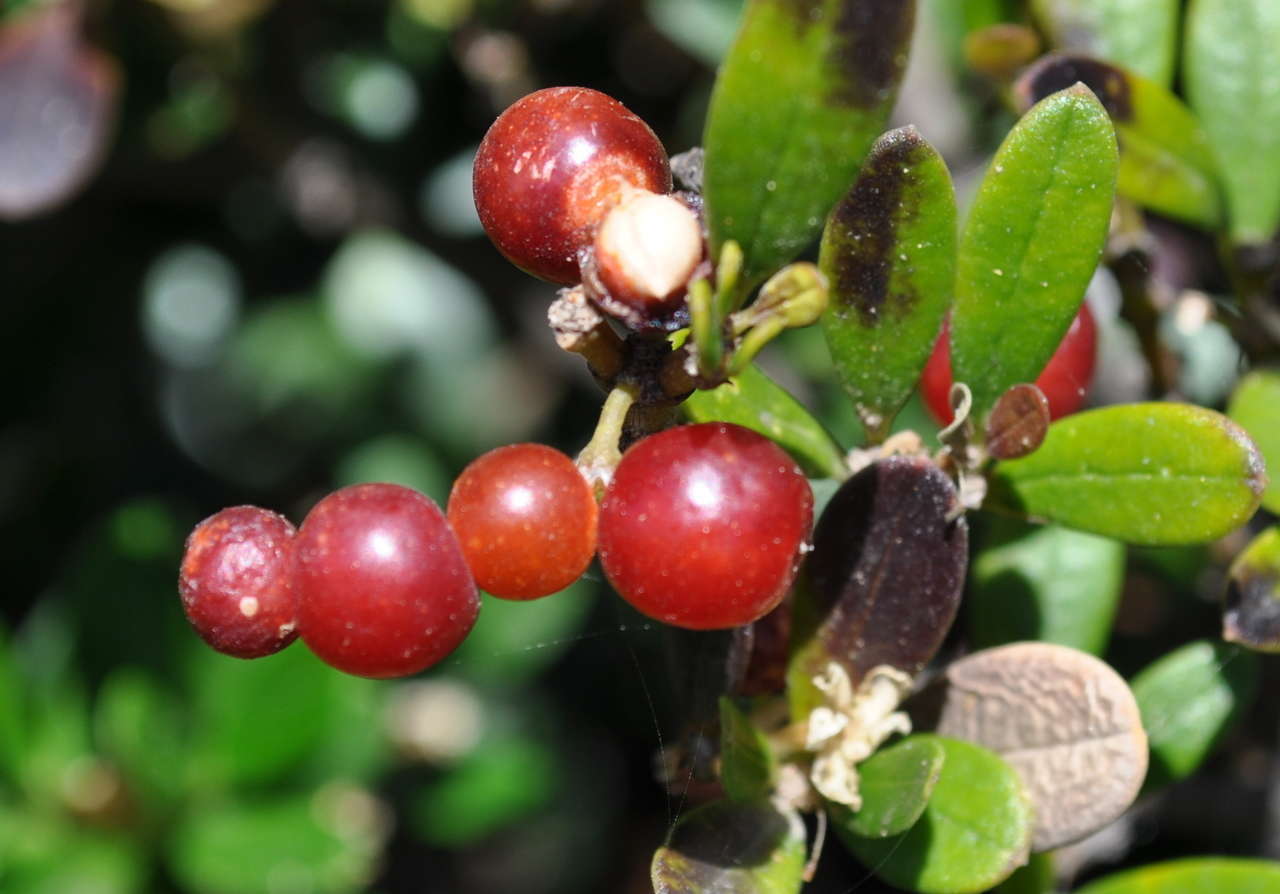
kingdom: Plantae
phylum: Tracheophyta
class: Magnoliopsida
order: Gentianales
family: Apocynaceae
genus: Alyxia
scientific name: Alyxia buxifolia
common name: Dysentery-bush
